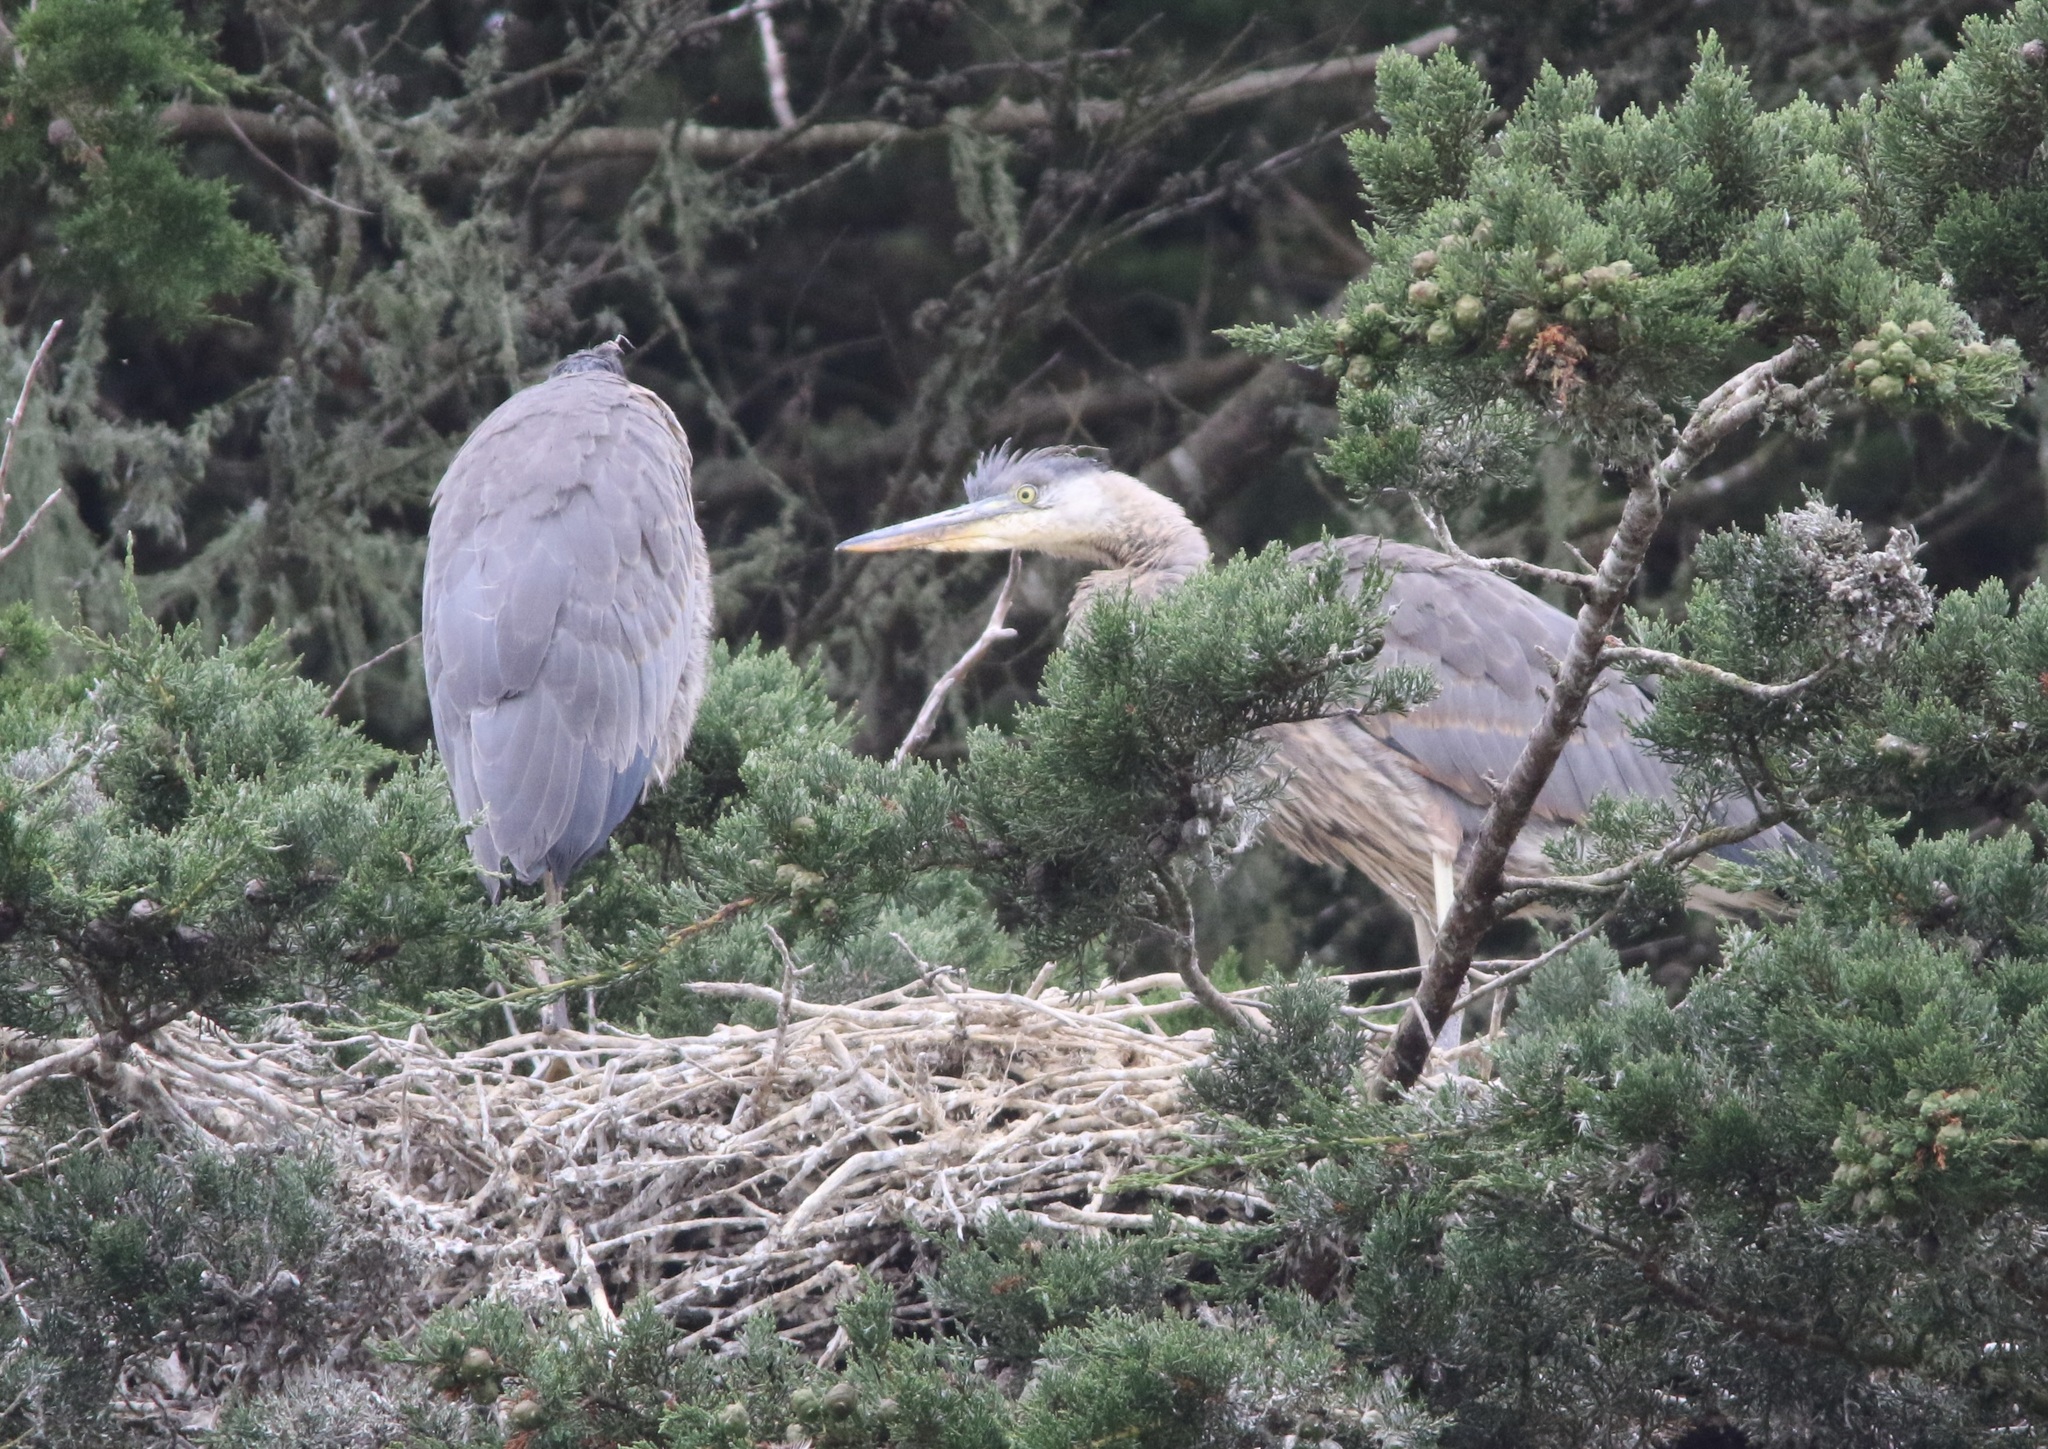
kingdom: Animalia
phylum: Chordata
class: Aves
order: Pelecaniformes
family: Ardeidae
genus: Ardea
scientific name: Ardea herodias
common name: Great blue heron
